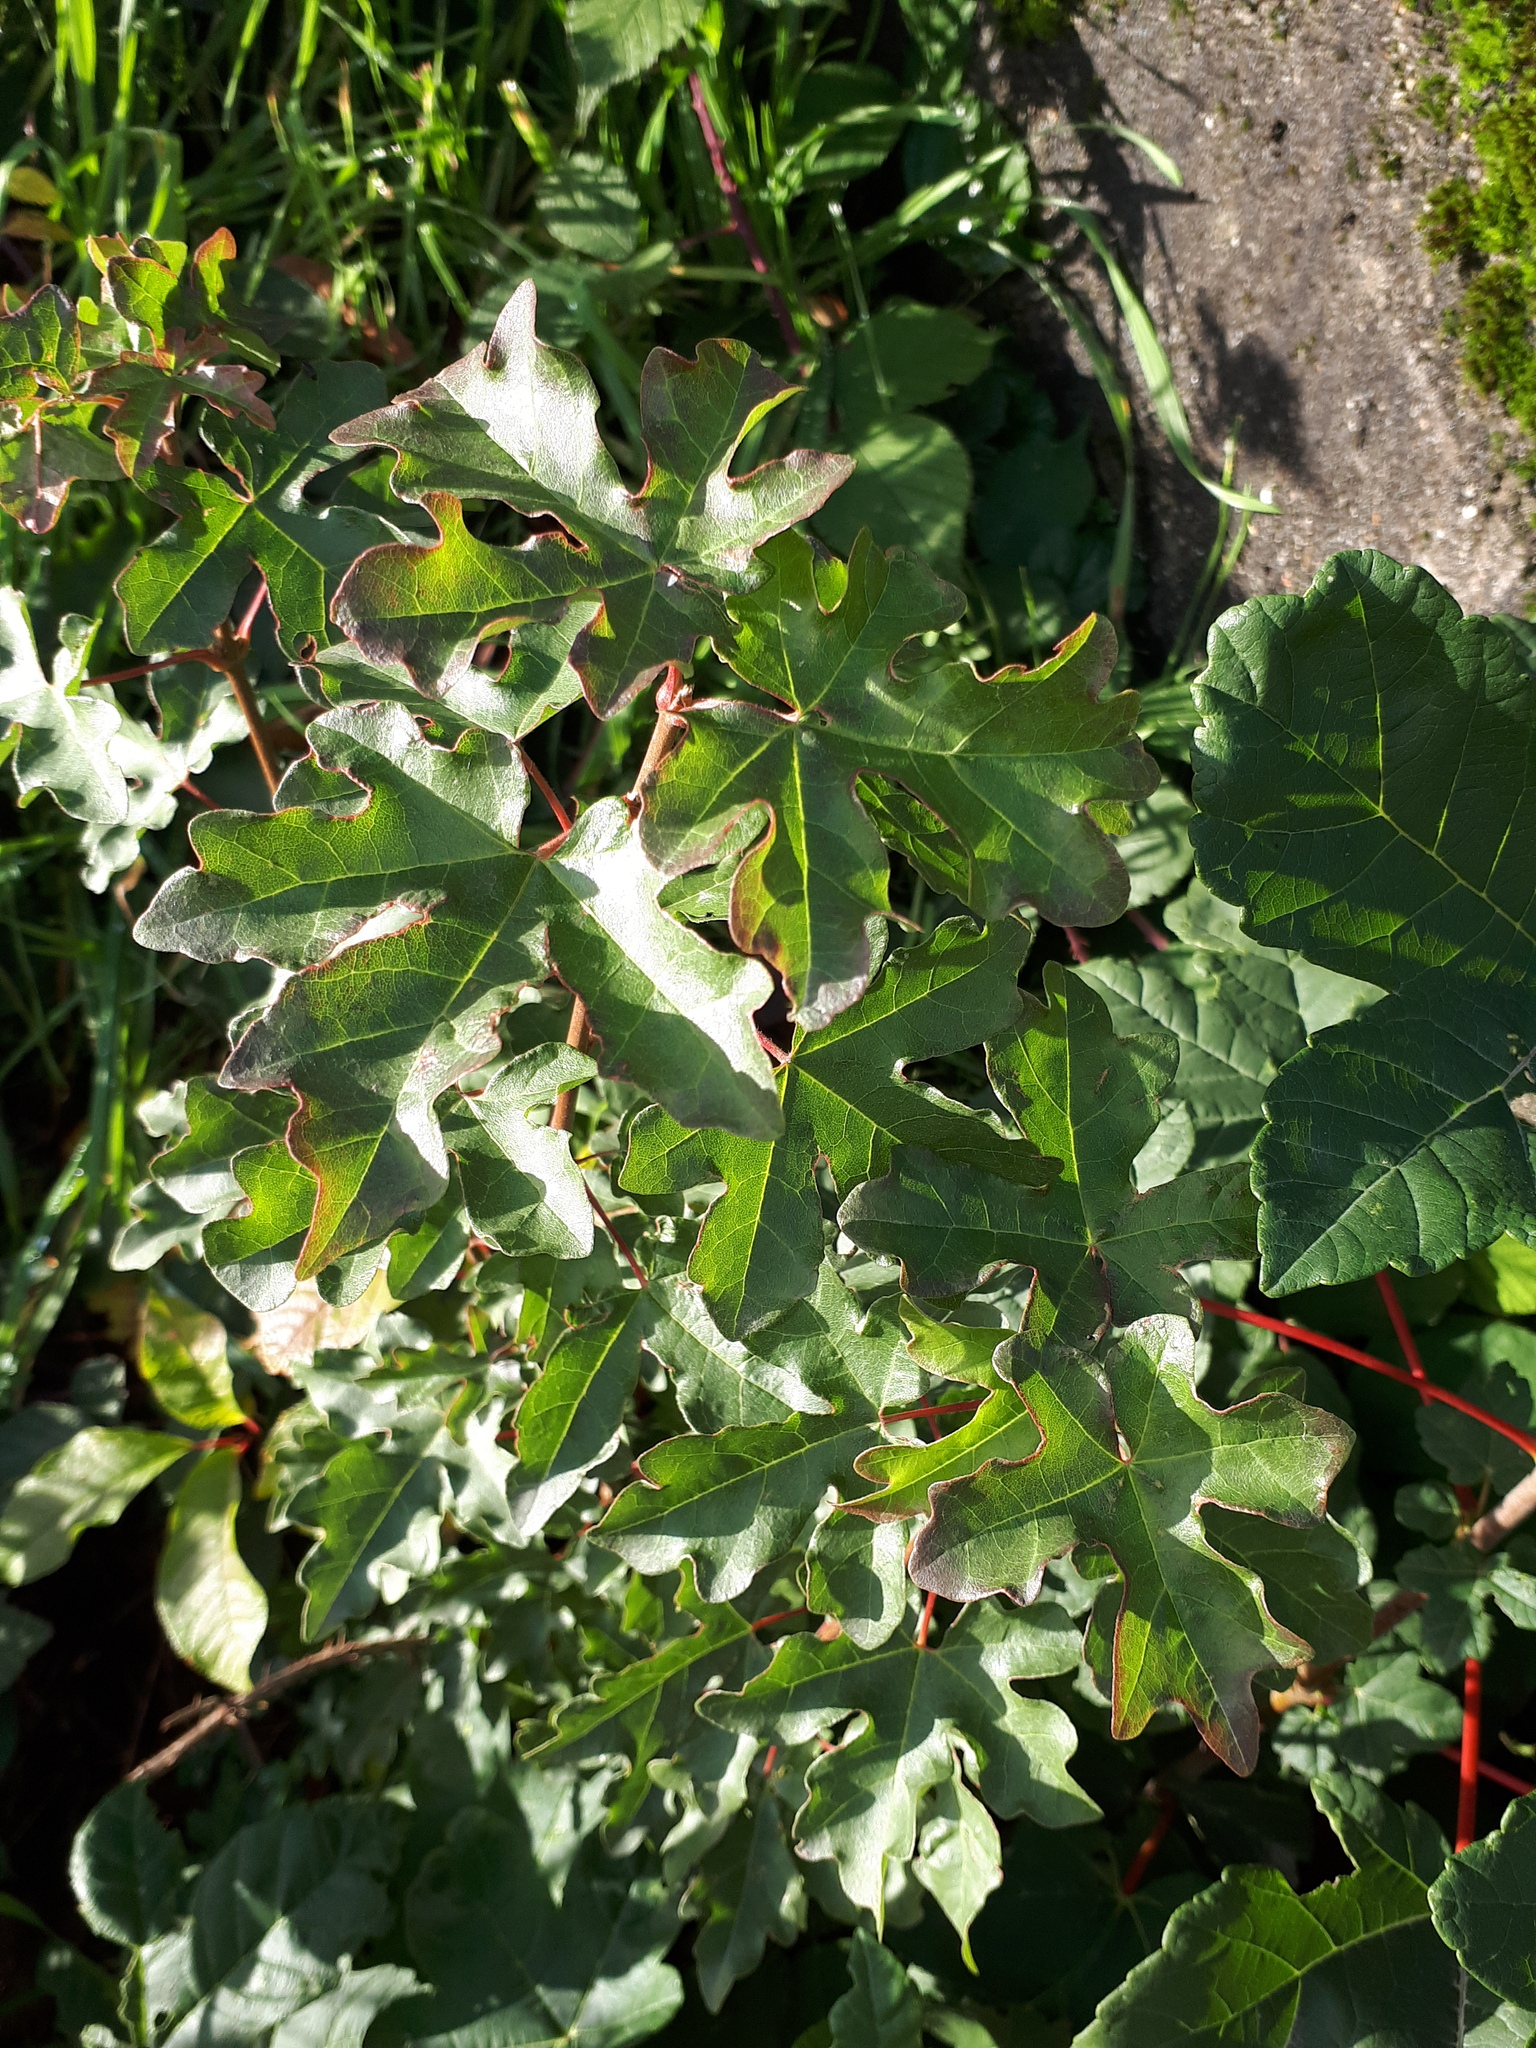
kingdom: Plantae
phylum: Tracheophyta
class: Magnoliopsida
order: Sapindales
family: Sapindaceae
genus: Acer
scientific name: Acer campestre
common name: Field maple
